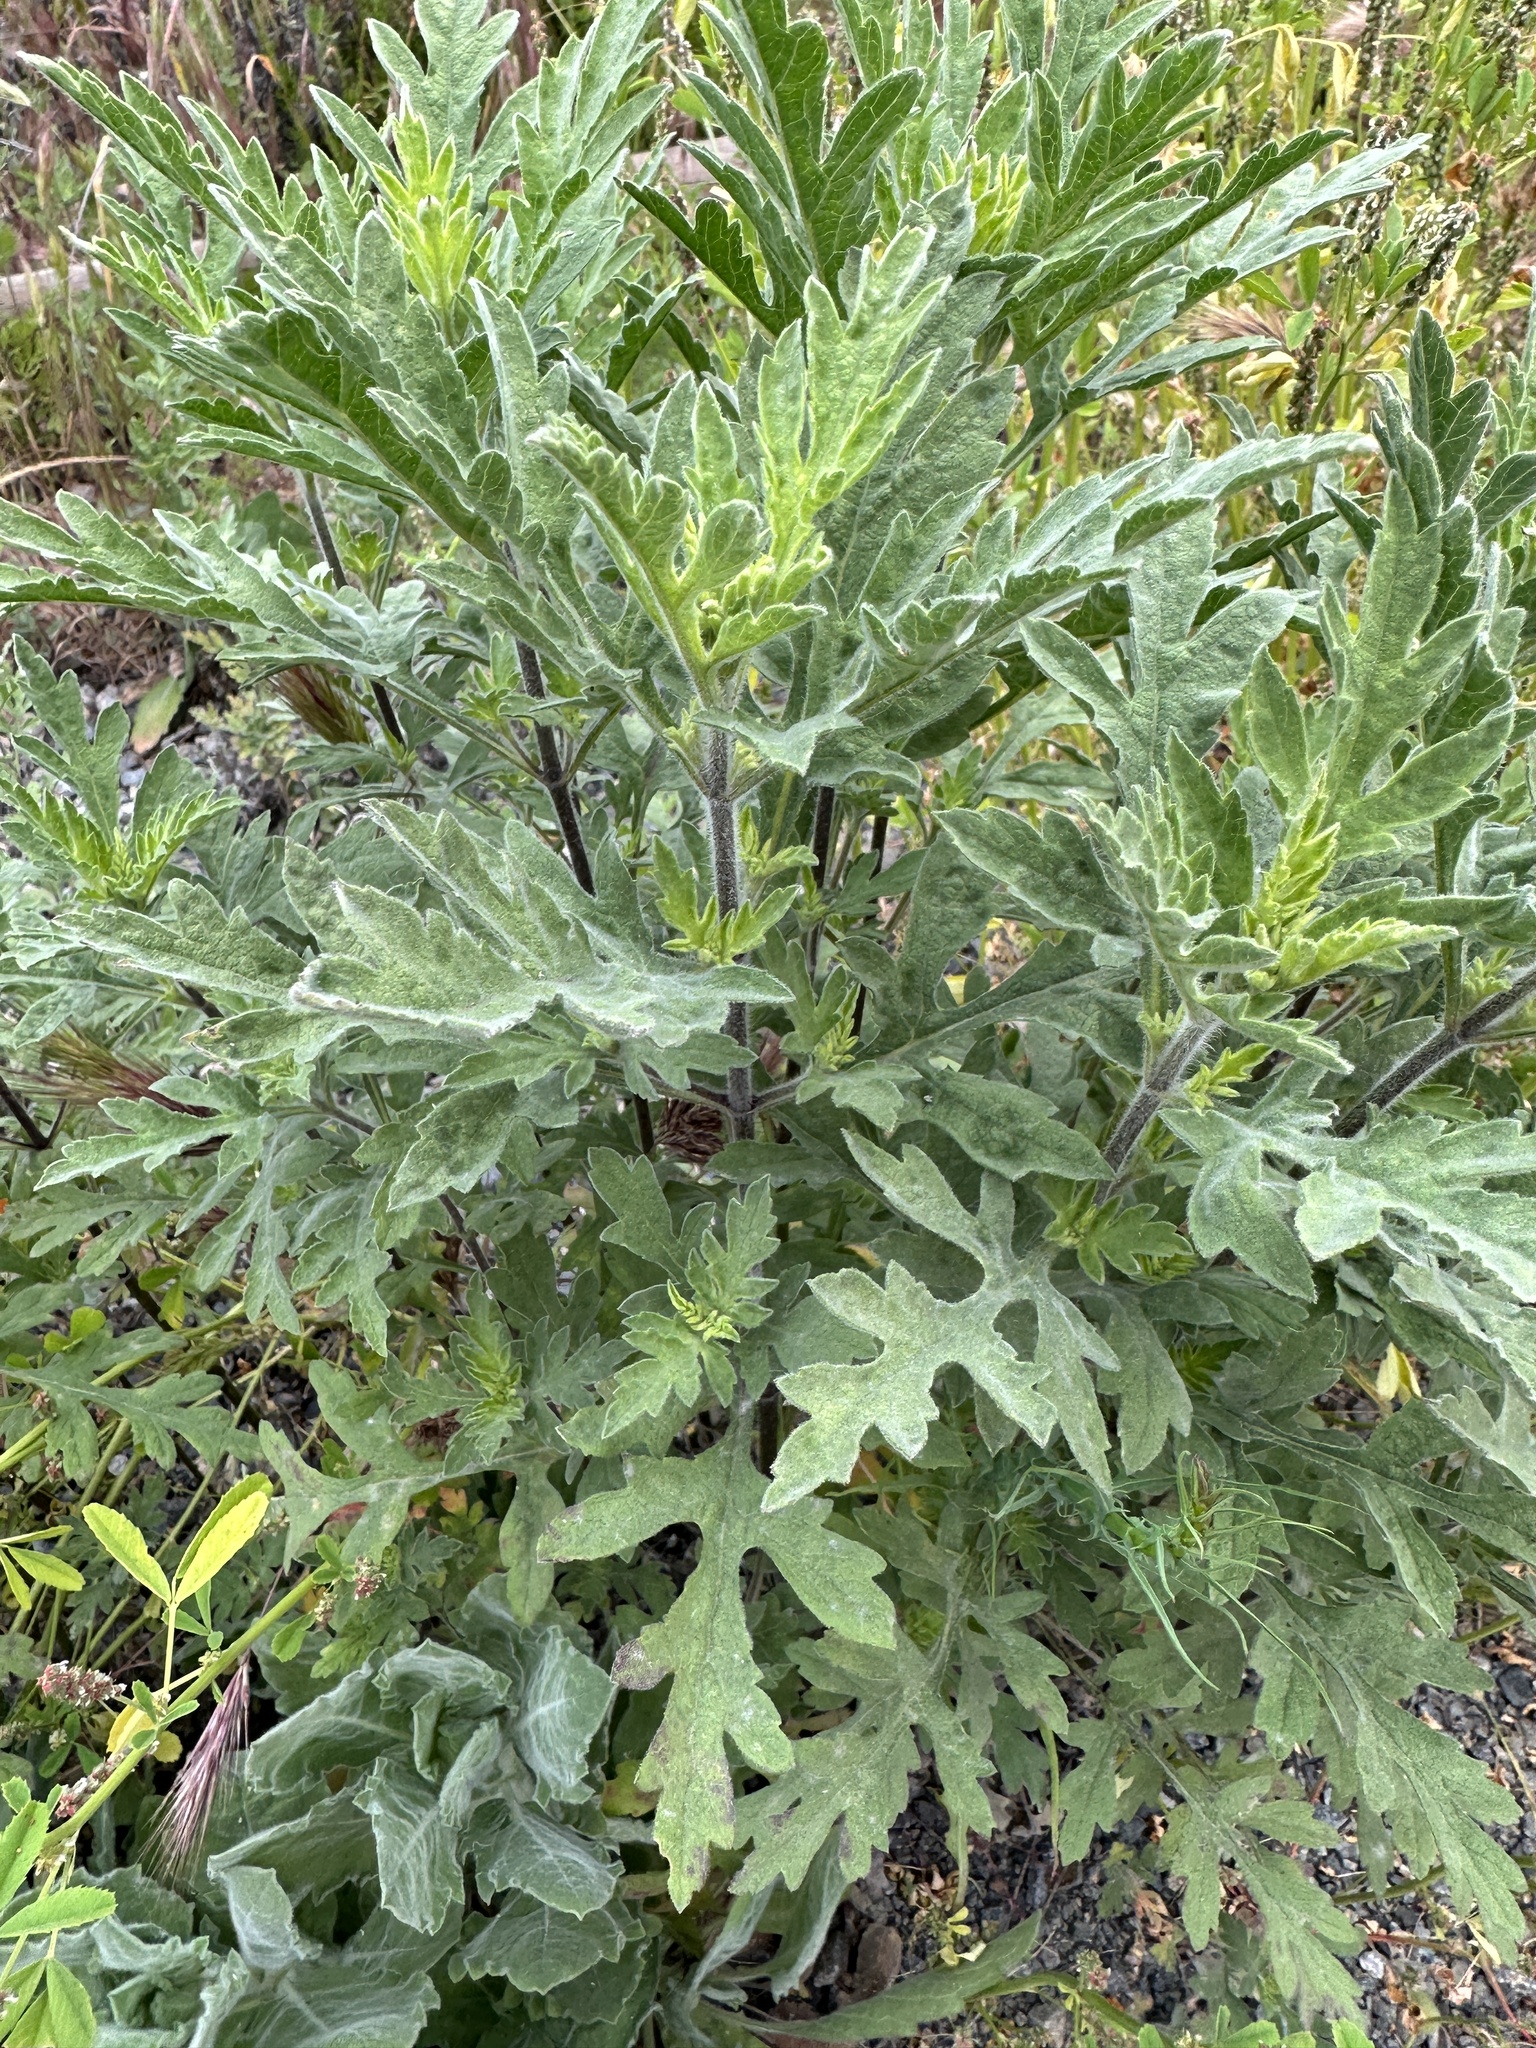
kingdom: Plantae
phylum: Tracheophyta
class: Magnoliopsida
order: Asterales
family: Asteraceae
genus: Ambrosia
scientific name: Ambrosia psilostachya
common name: Perennial ragweed
